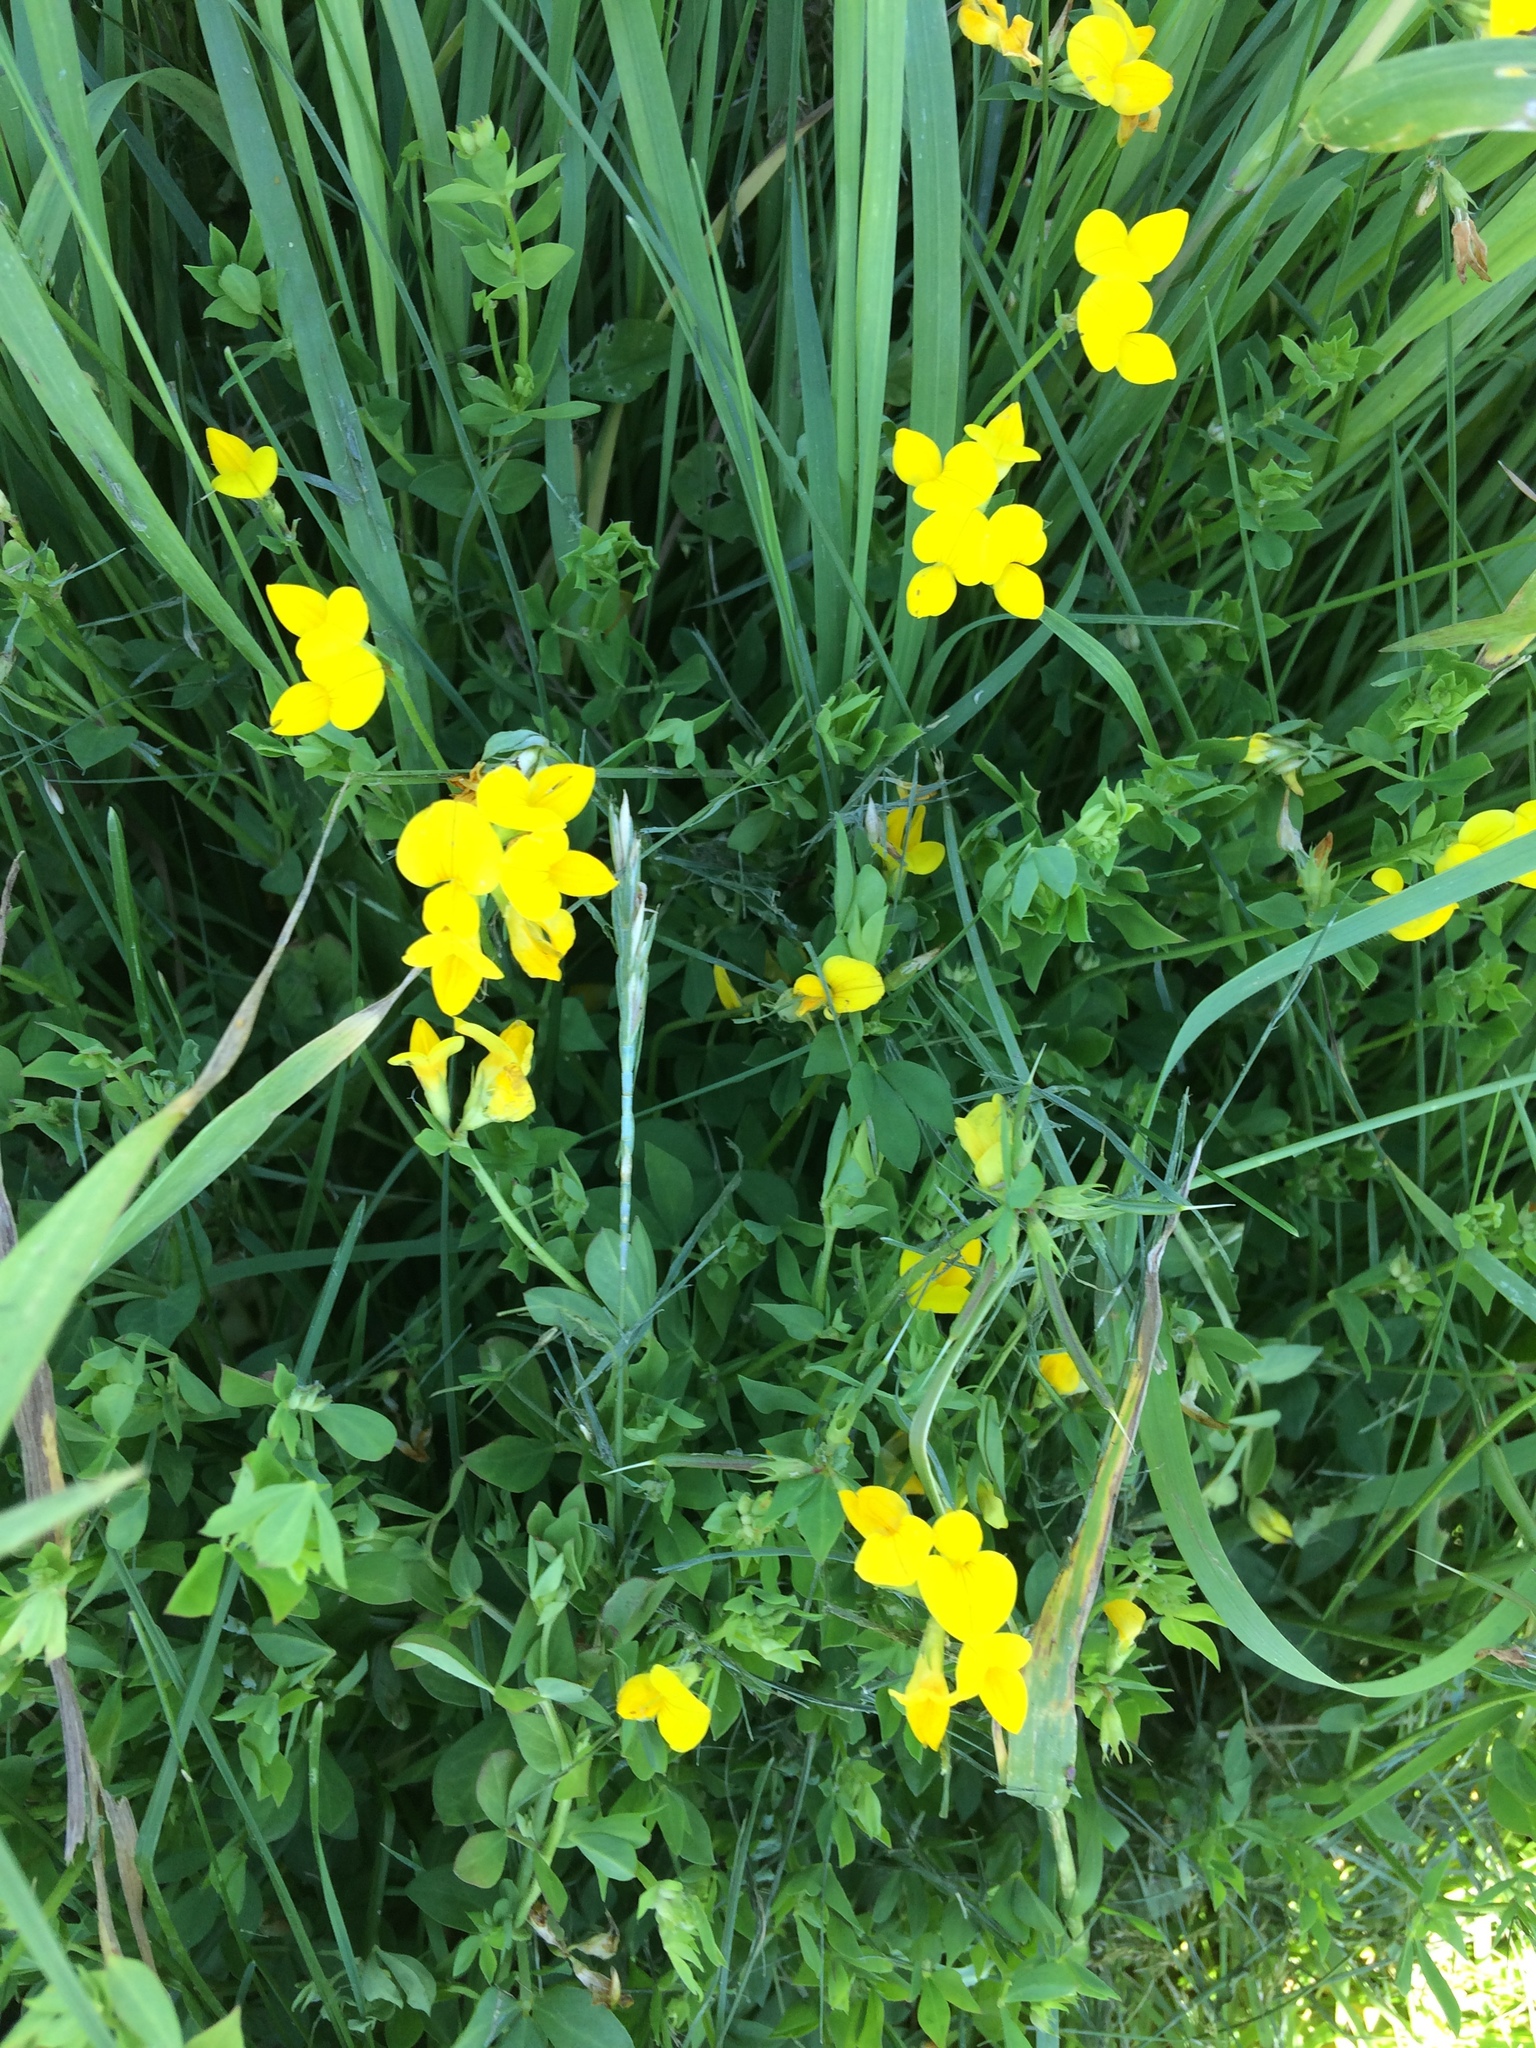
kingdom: Plantae
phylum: Tracheophyta
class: Magnoliopsida
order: Fabales
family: Fabaceae
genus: Lotus
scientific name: Lotus corniculatus
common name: Common bird's-foot-trefoil
